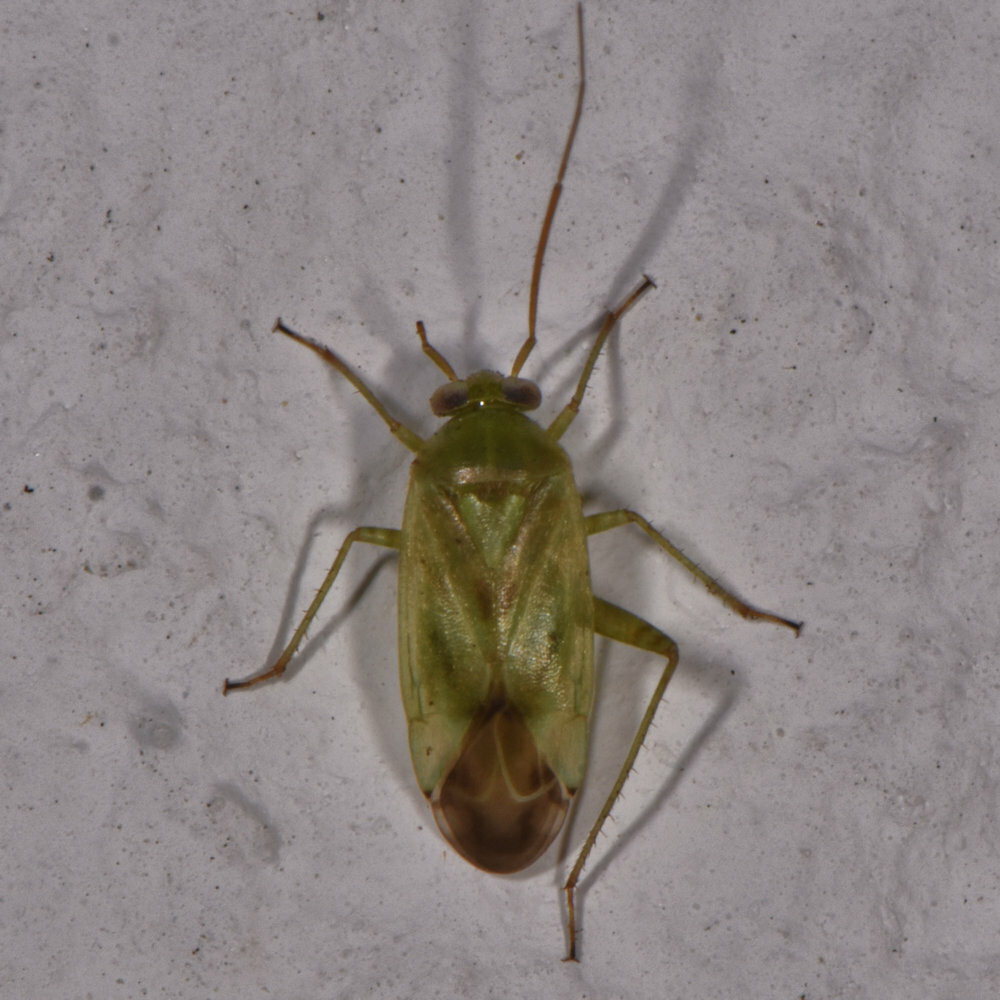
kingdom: Animalia
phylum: Arthropoda
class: Insecta
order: Hemiptera
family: Miridae
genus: Taylorilygus
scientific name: Taylorilygus apicalis
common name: Plant bug
